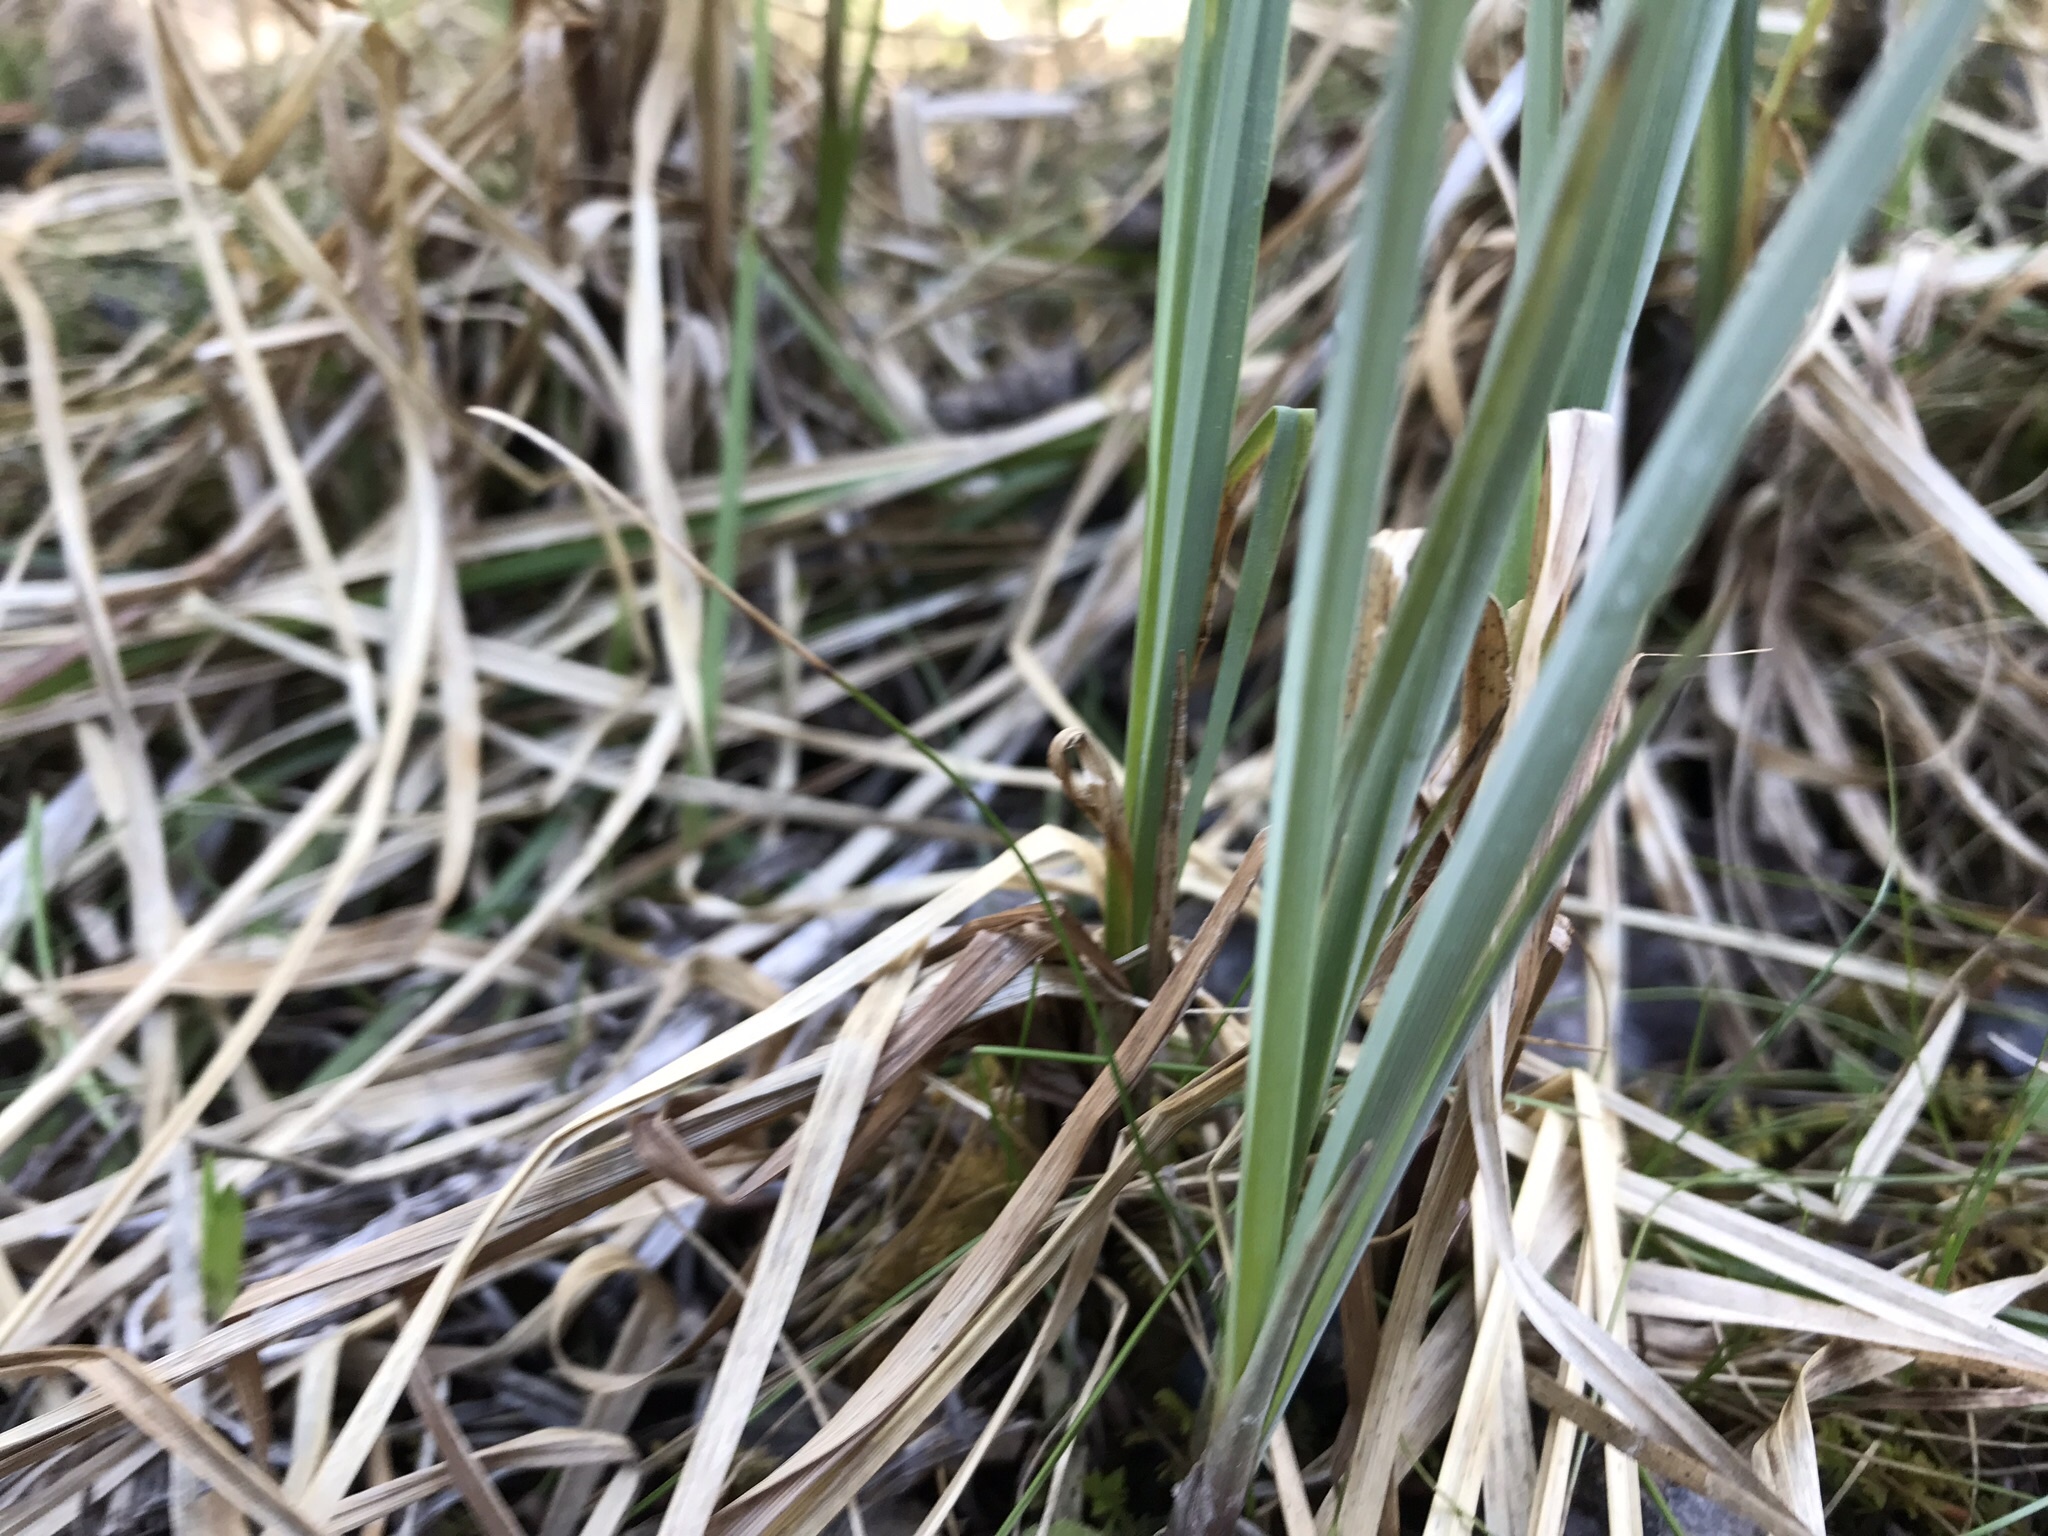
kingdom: Plantae
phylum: Tracheophyta
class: Liliopsida
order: Poales
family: Cyperaceae
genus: Carex
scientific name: Carex aquatilis
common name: Water sedge
